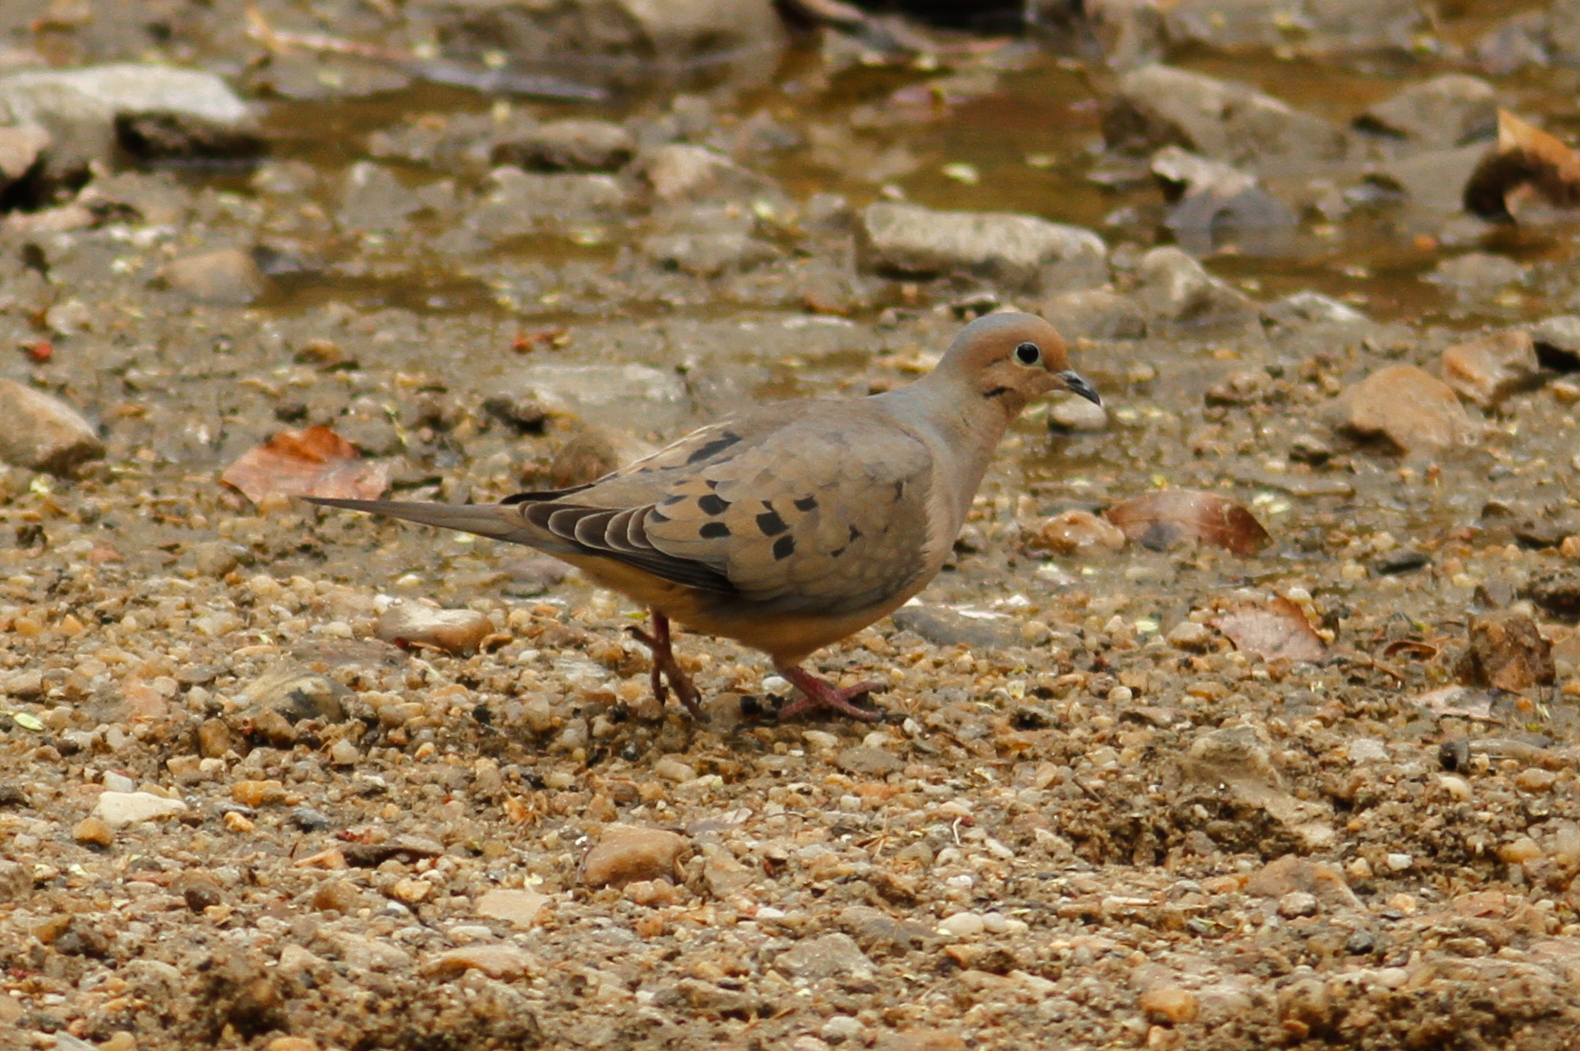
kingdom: Animalia
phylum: Chordata
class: Aves
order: Columbiformes
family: Columbidae
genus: Zenaida
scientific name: Zenaida macroura
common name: Mourning dove
